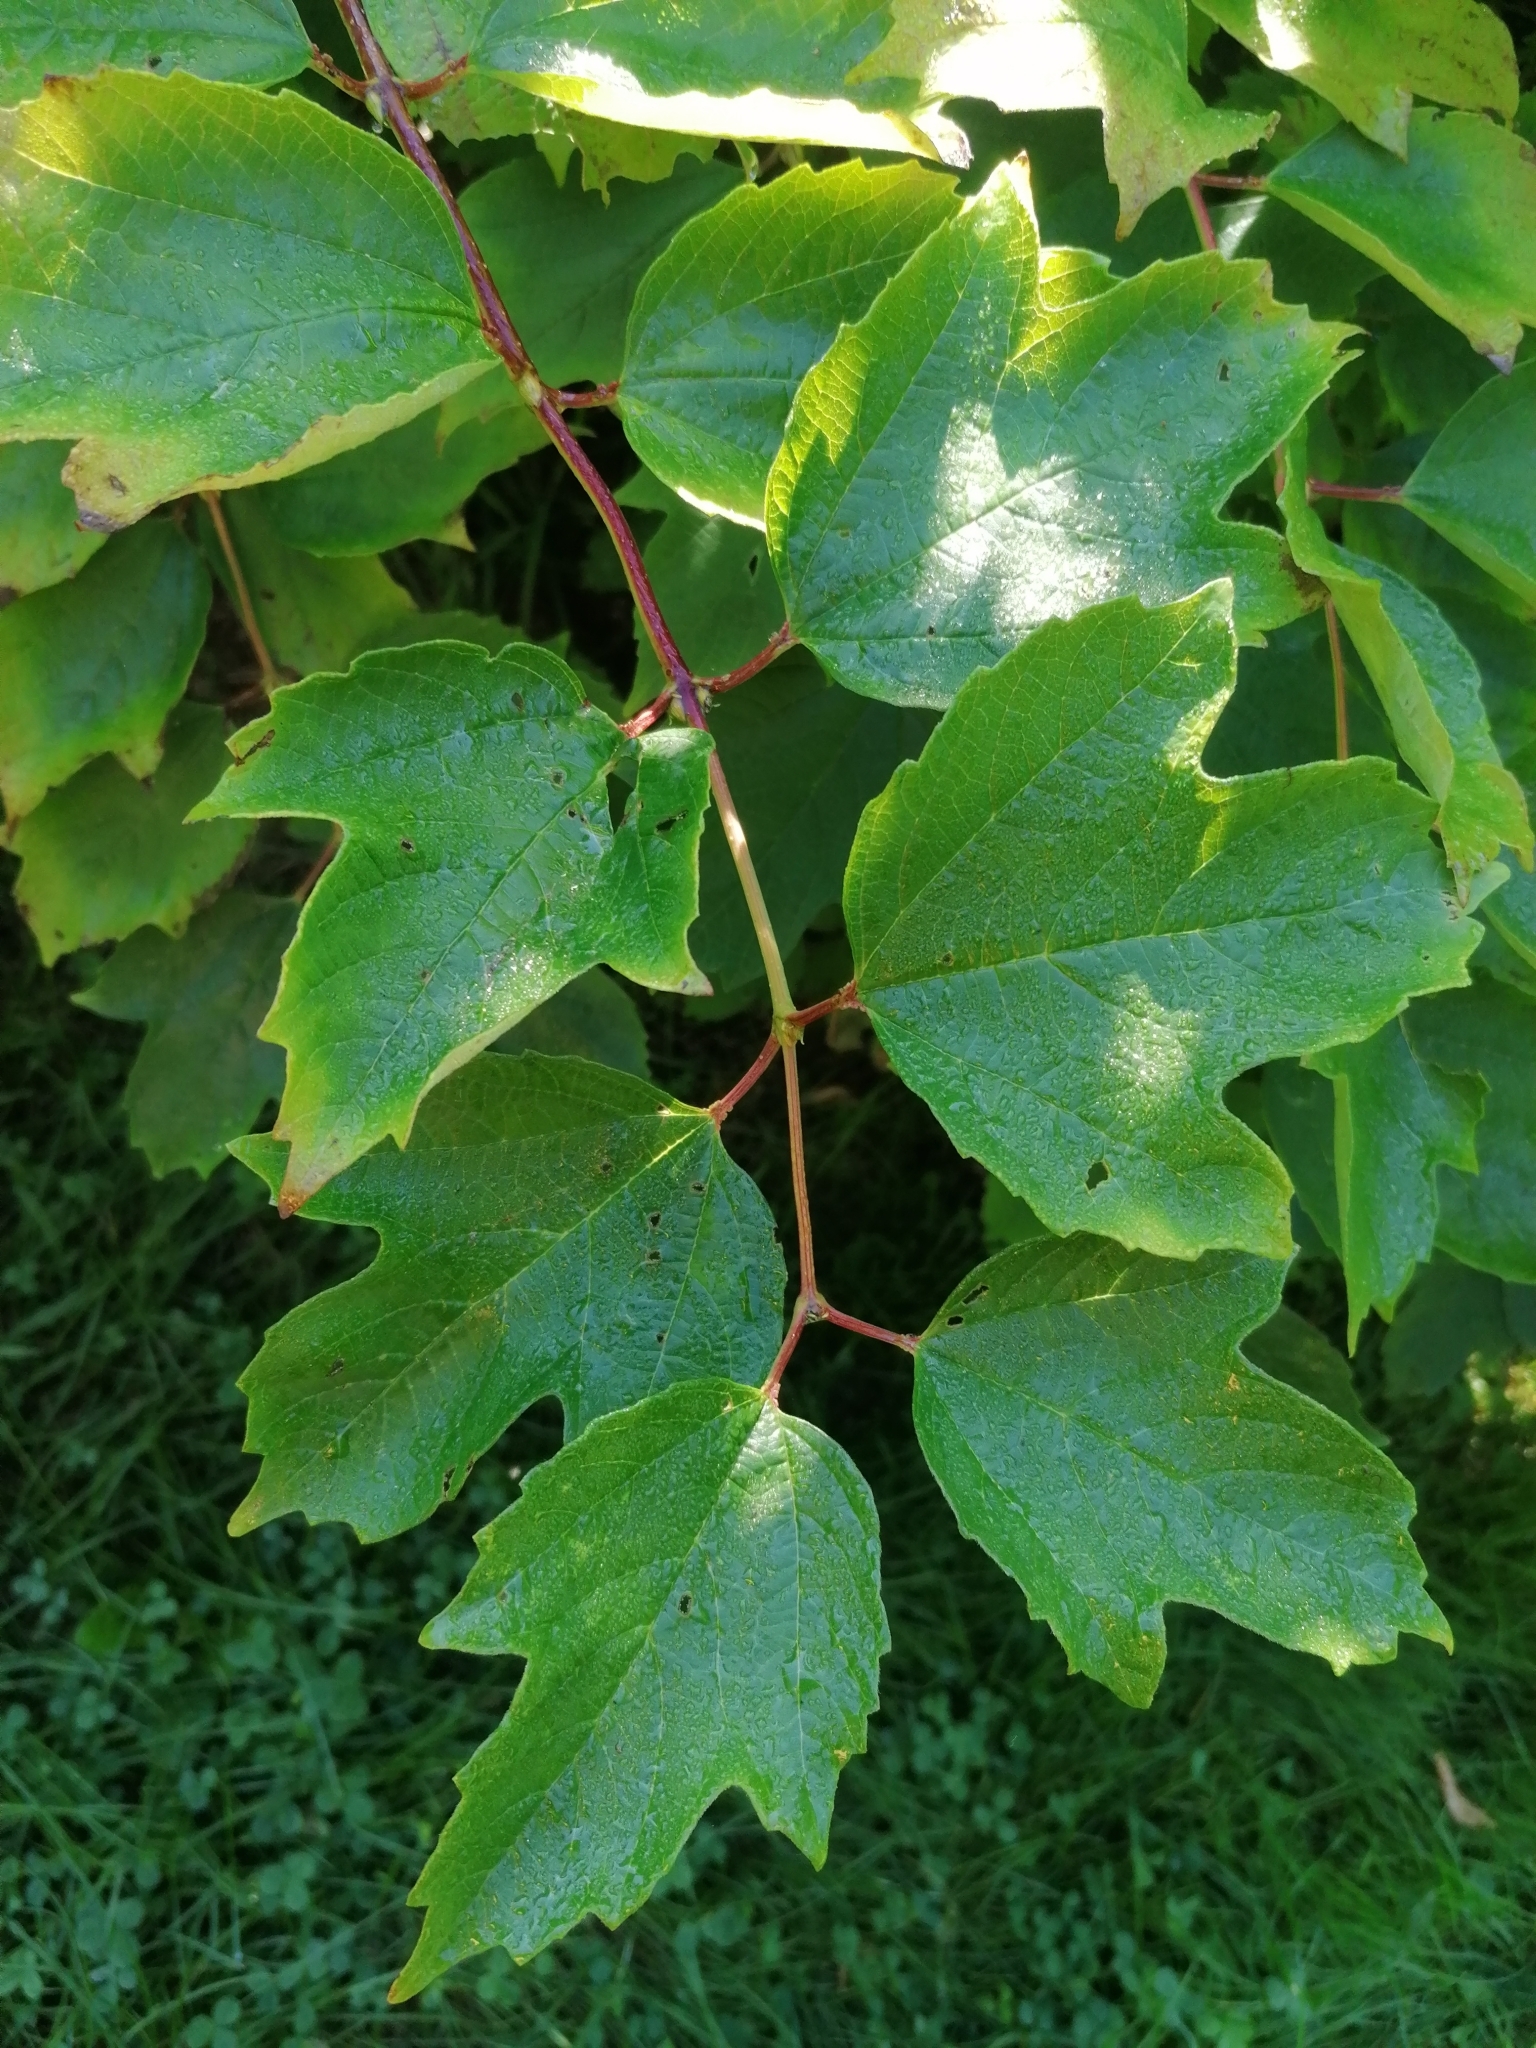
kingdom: Plantae
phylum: Tracheophyta
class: Magnoliopsida
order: Dipsacales
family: Viburnaceae
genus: Viburnum
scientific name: Viburnum opulus
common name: Guelder-rose
